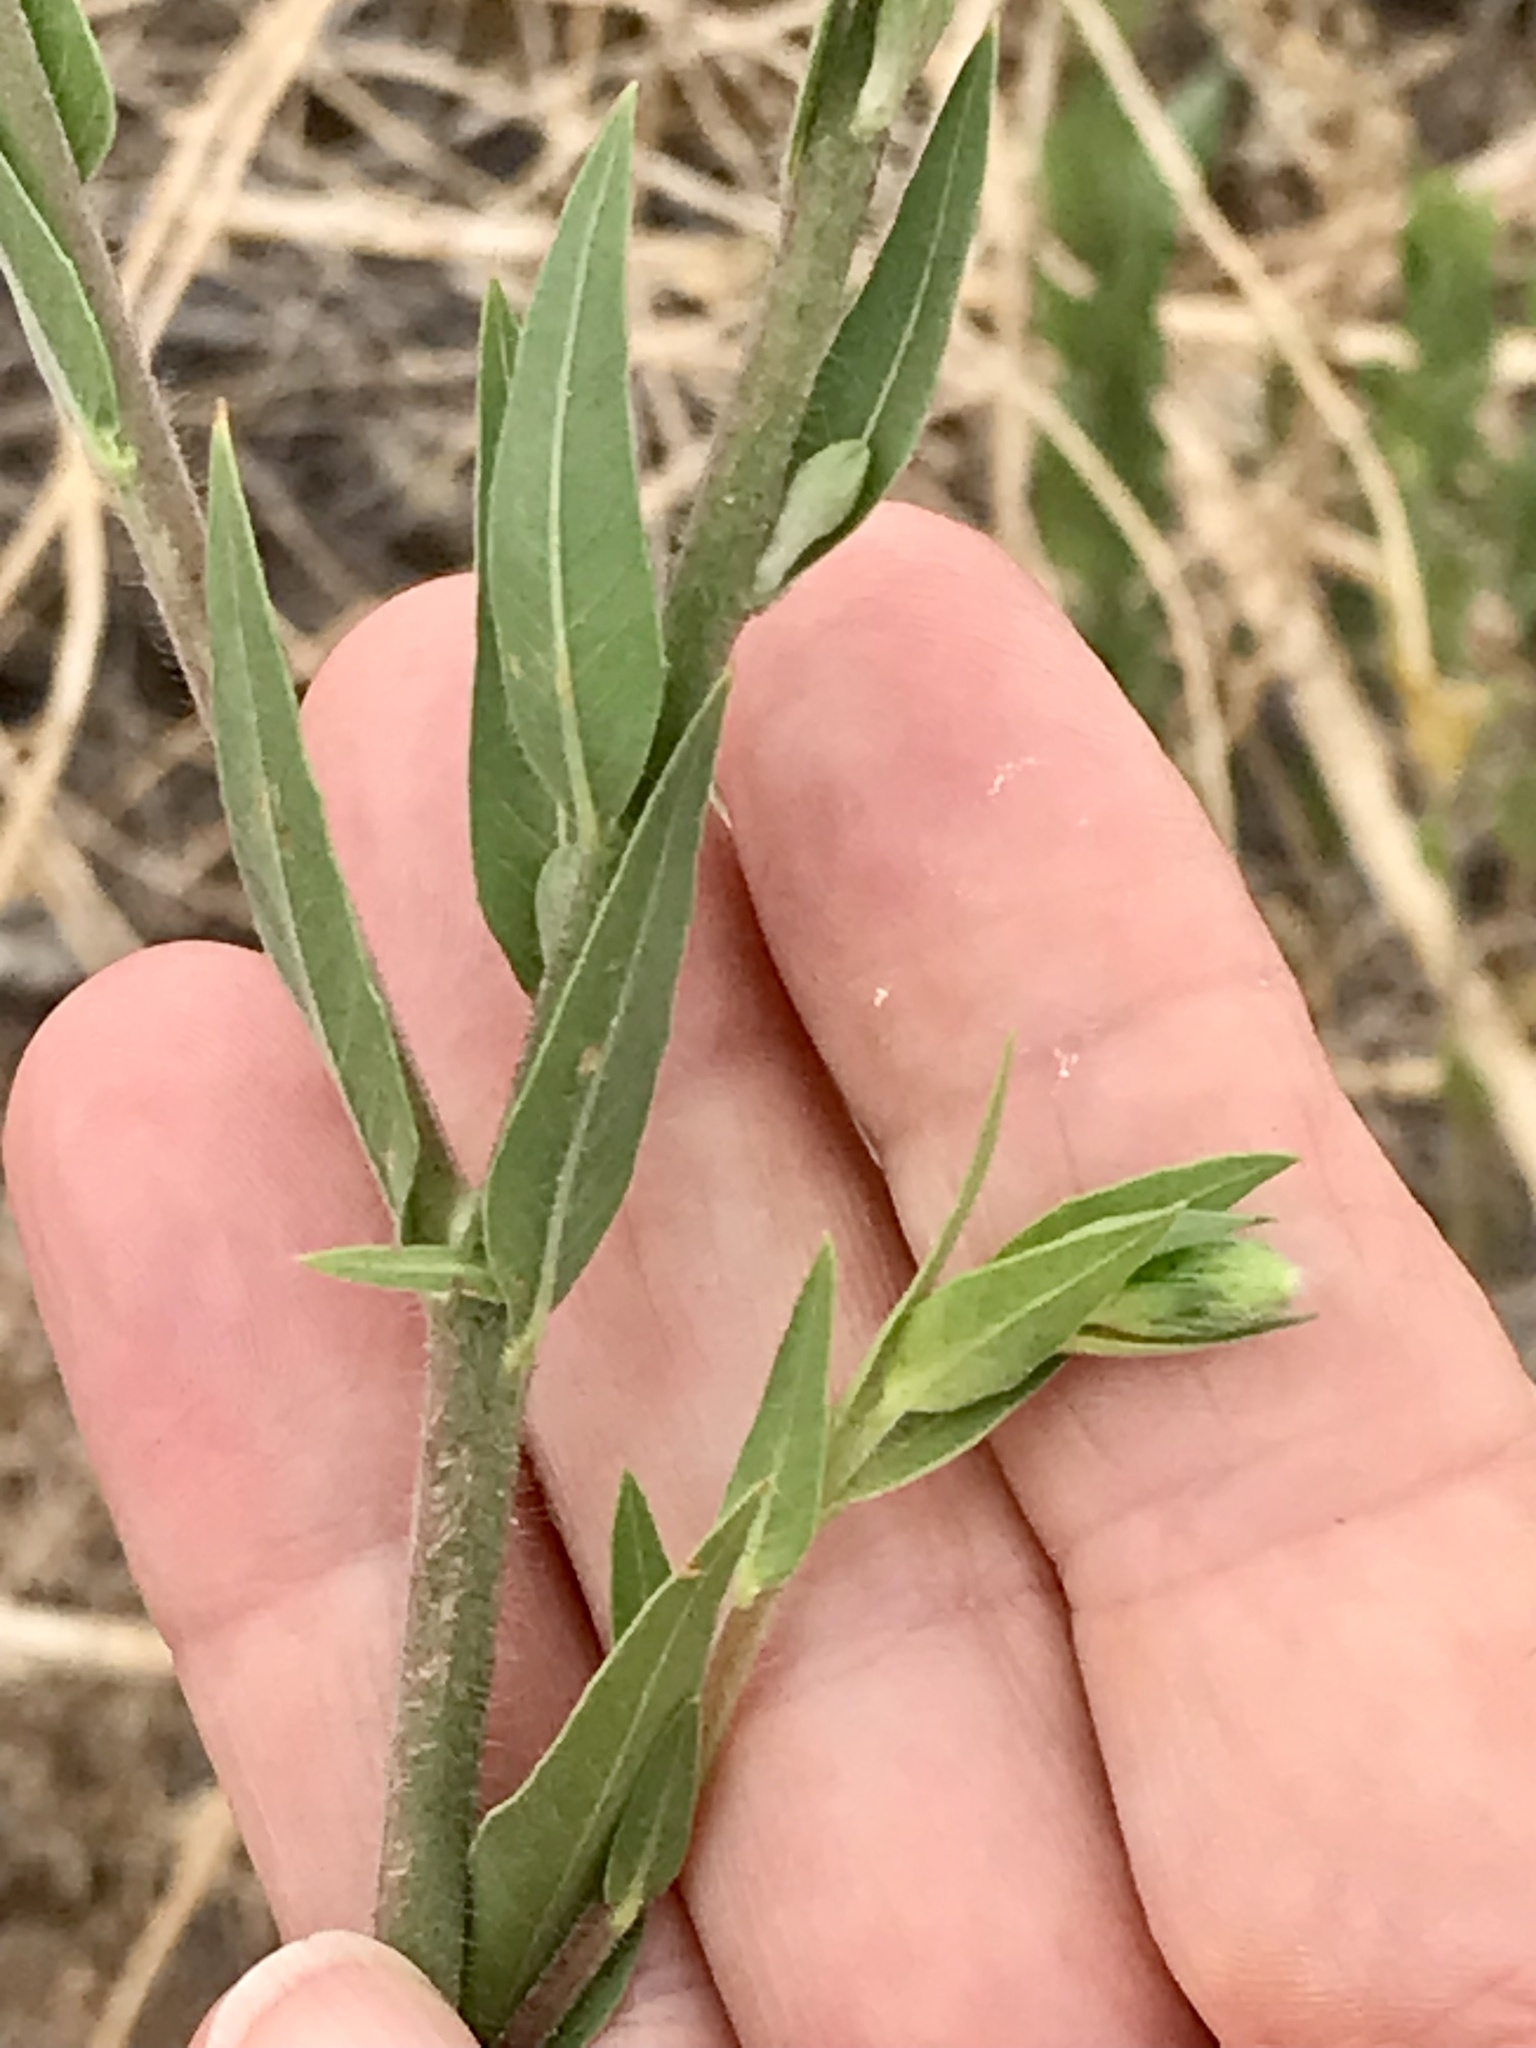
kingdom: Plantae
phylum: Tracheophyta
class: Magnoliopsida
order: Myrtales
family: Onagraceae
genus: Oenothera
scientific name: Oenothera curtiflora
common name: Velvetweed
